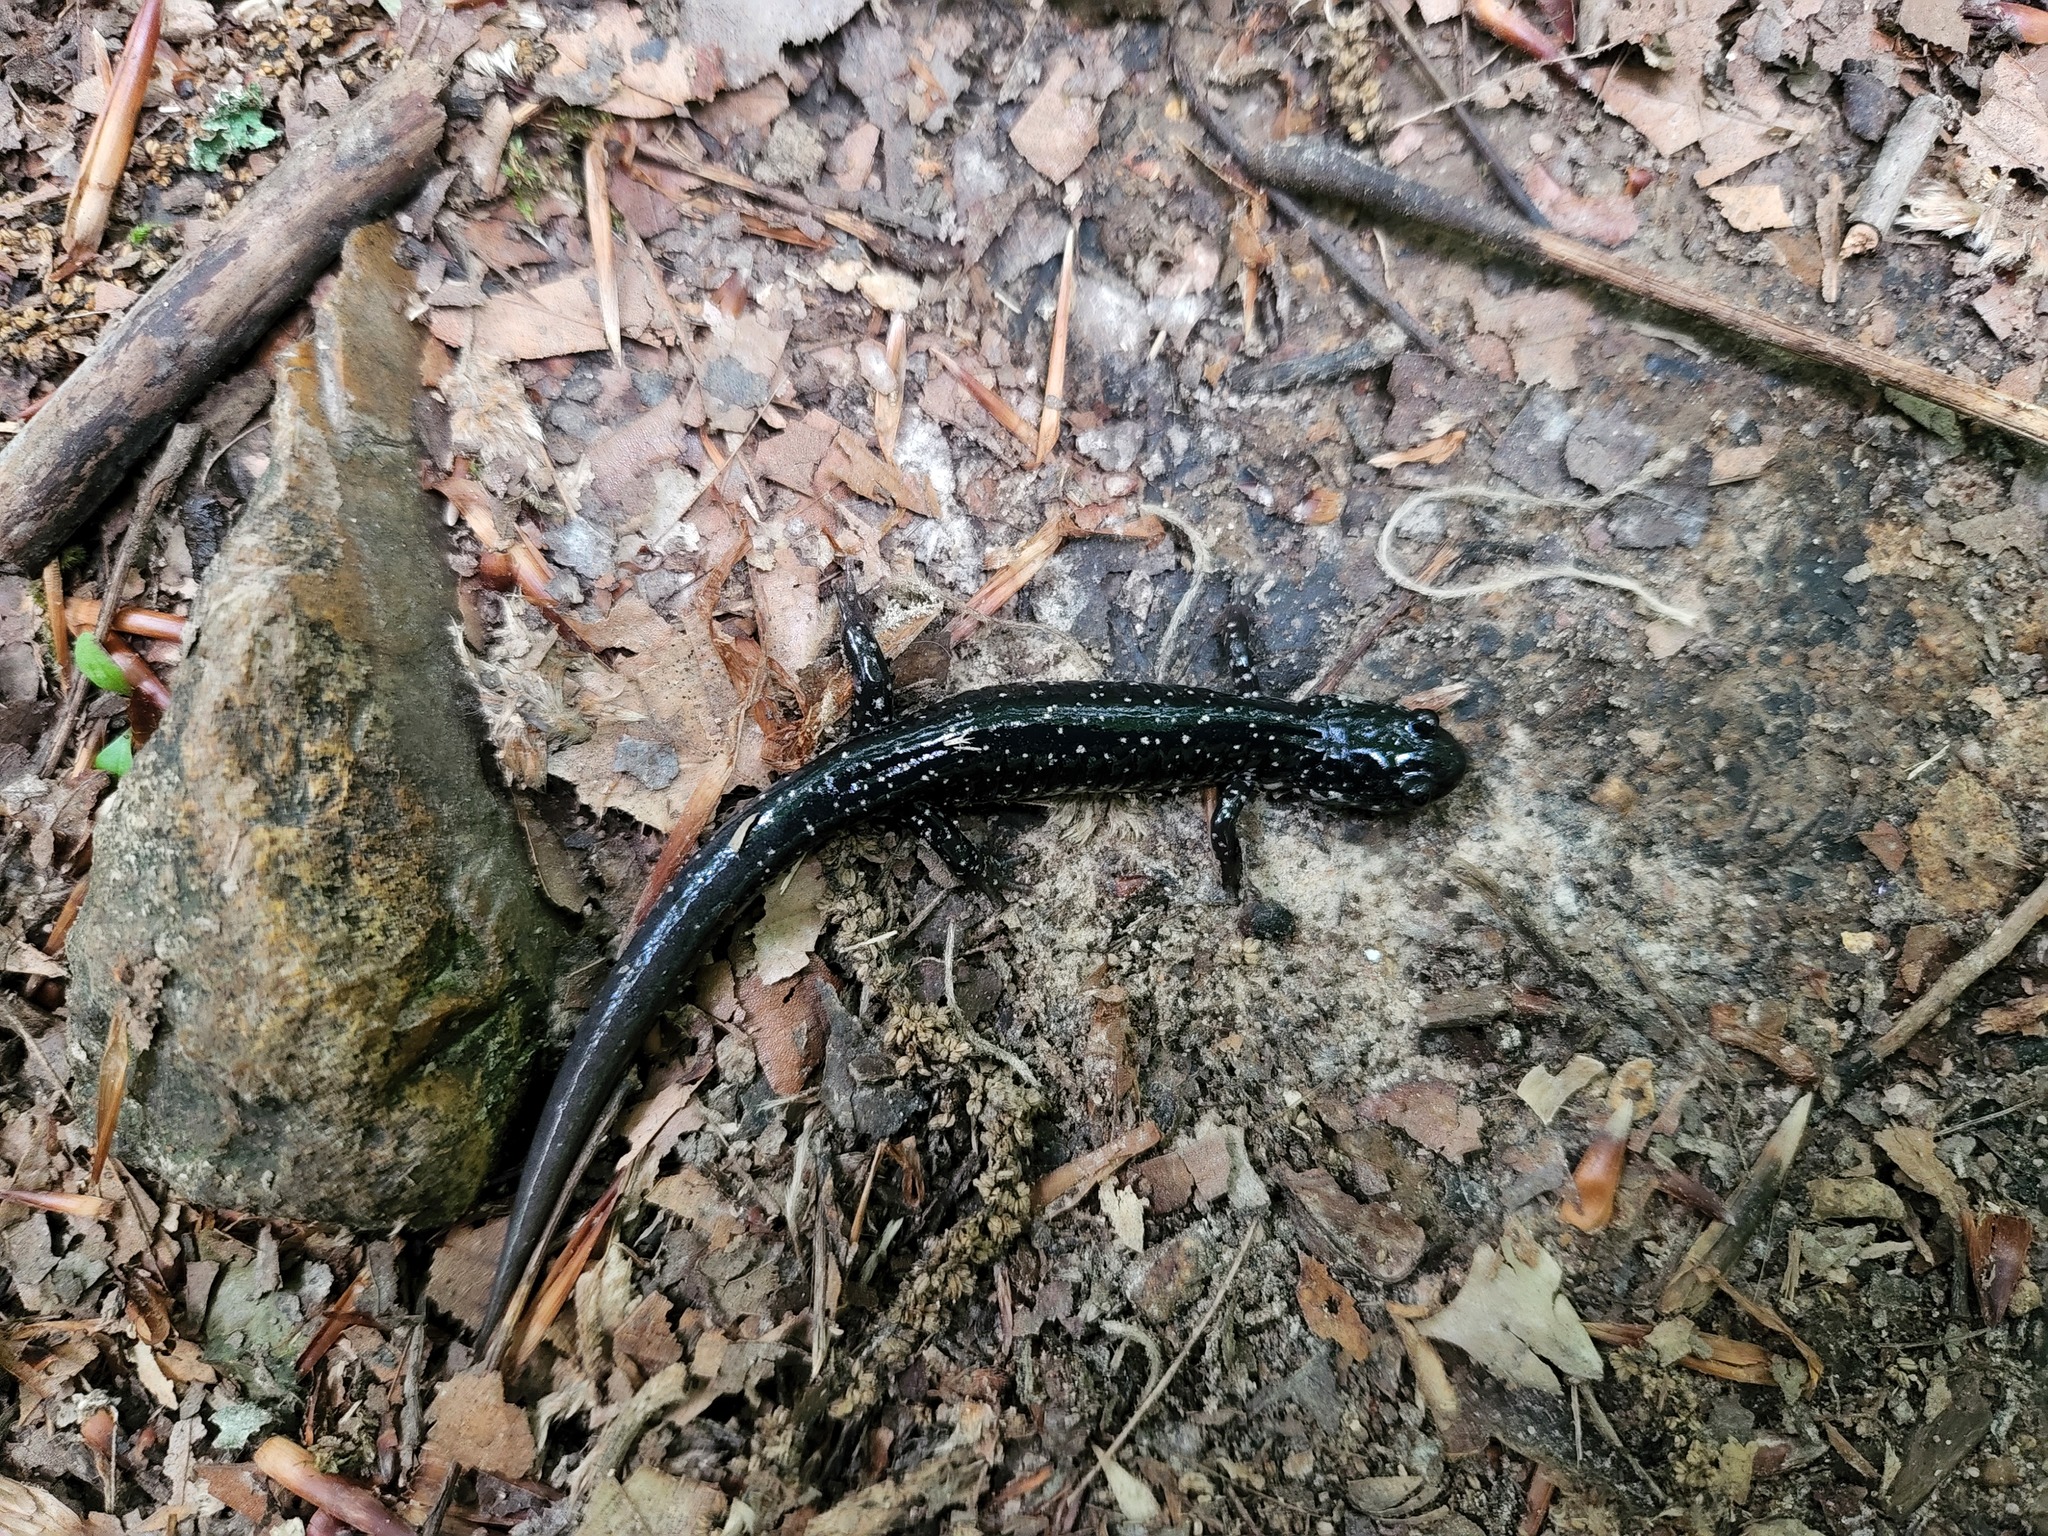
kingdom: Animalia
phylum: Chordata
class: Amphibia
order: Caudata
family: Plethodontidae
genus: Plethodon
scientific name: Plethodon glutinosus
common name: Northern slimy salamander
